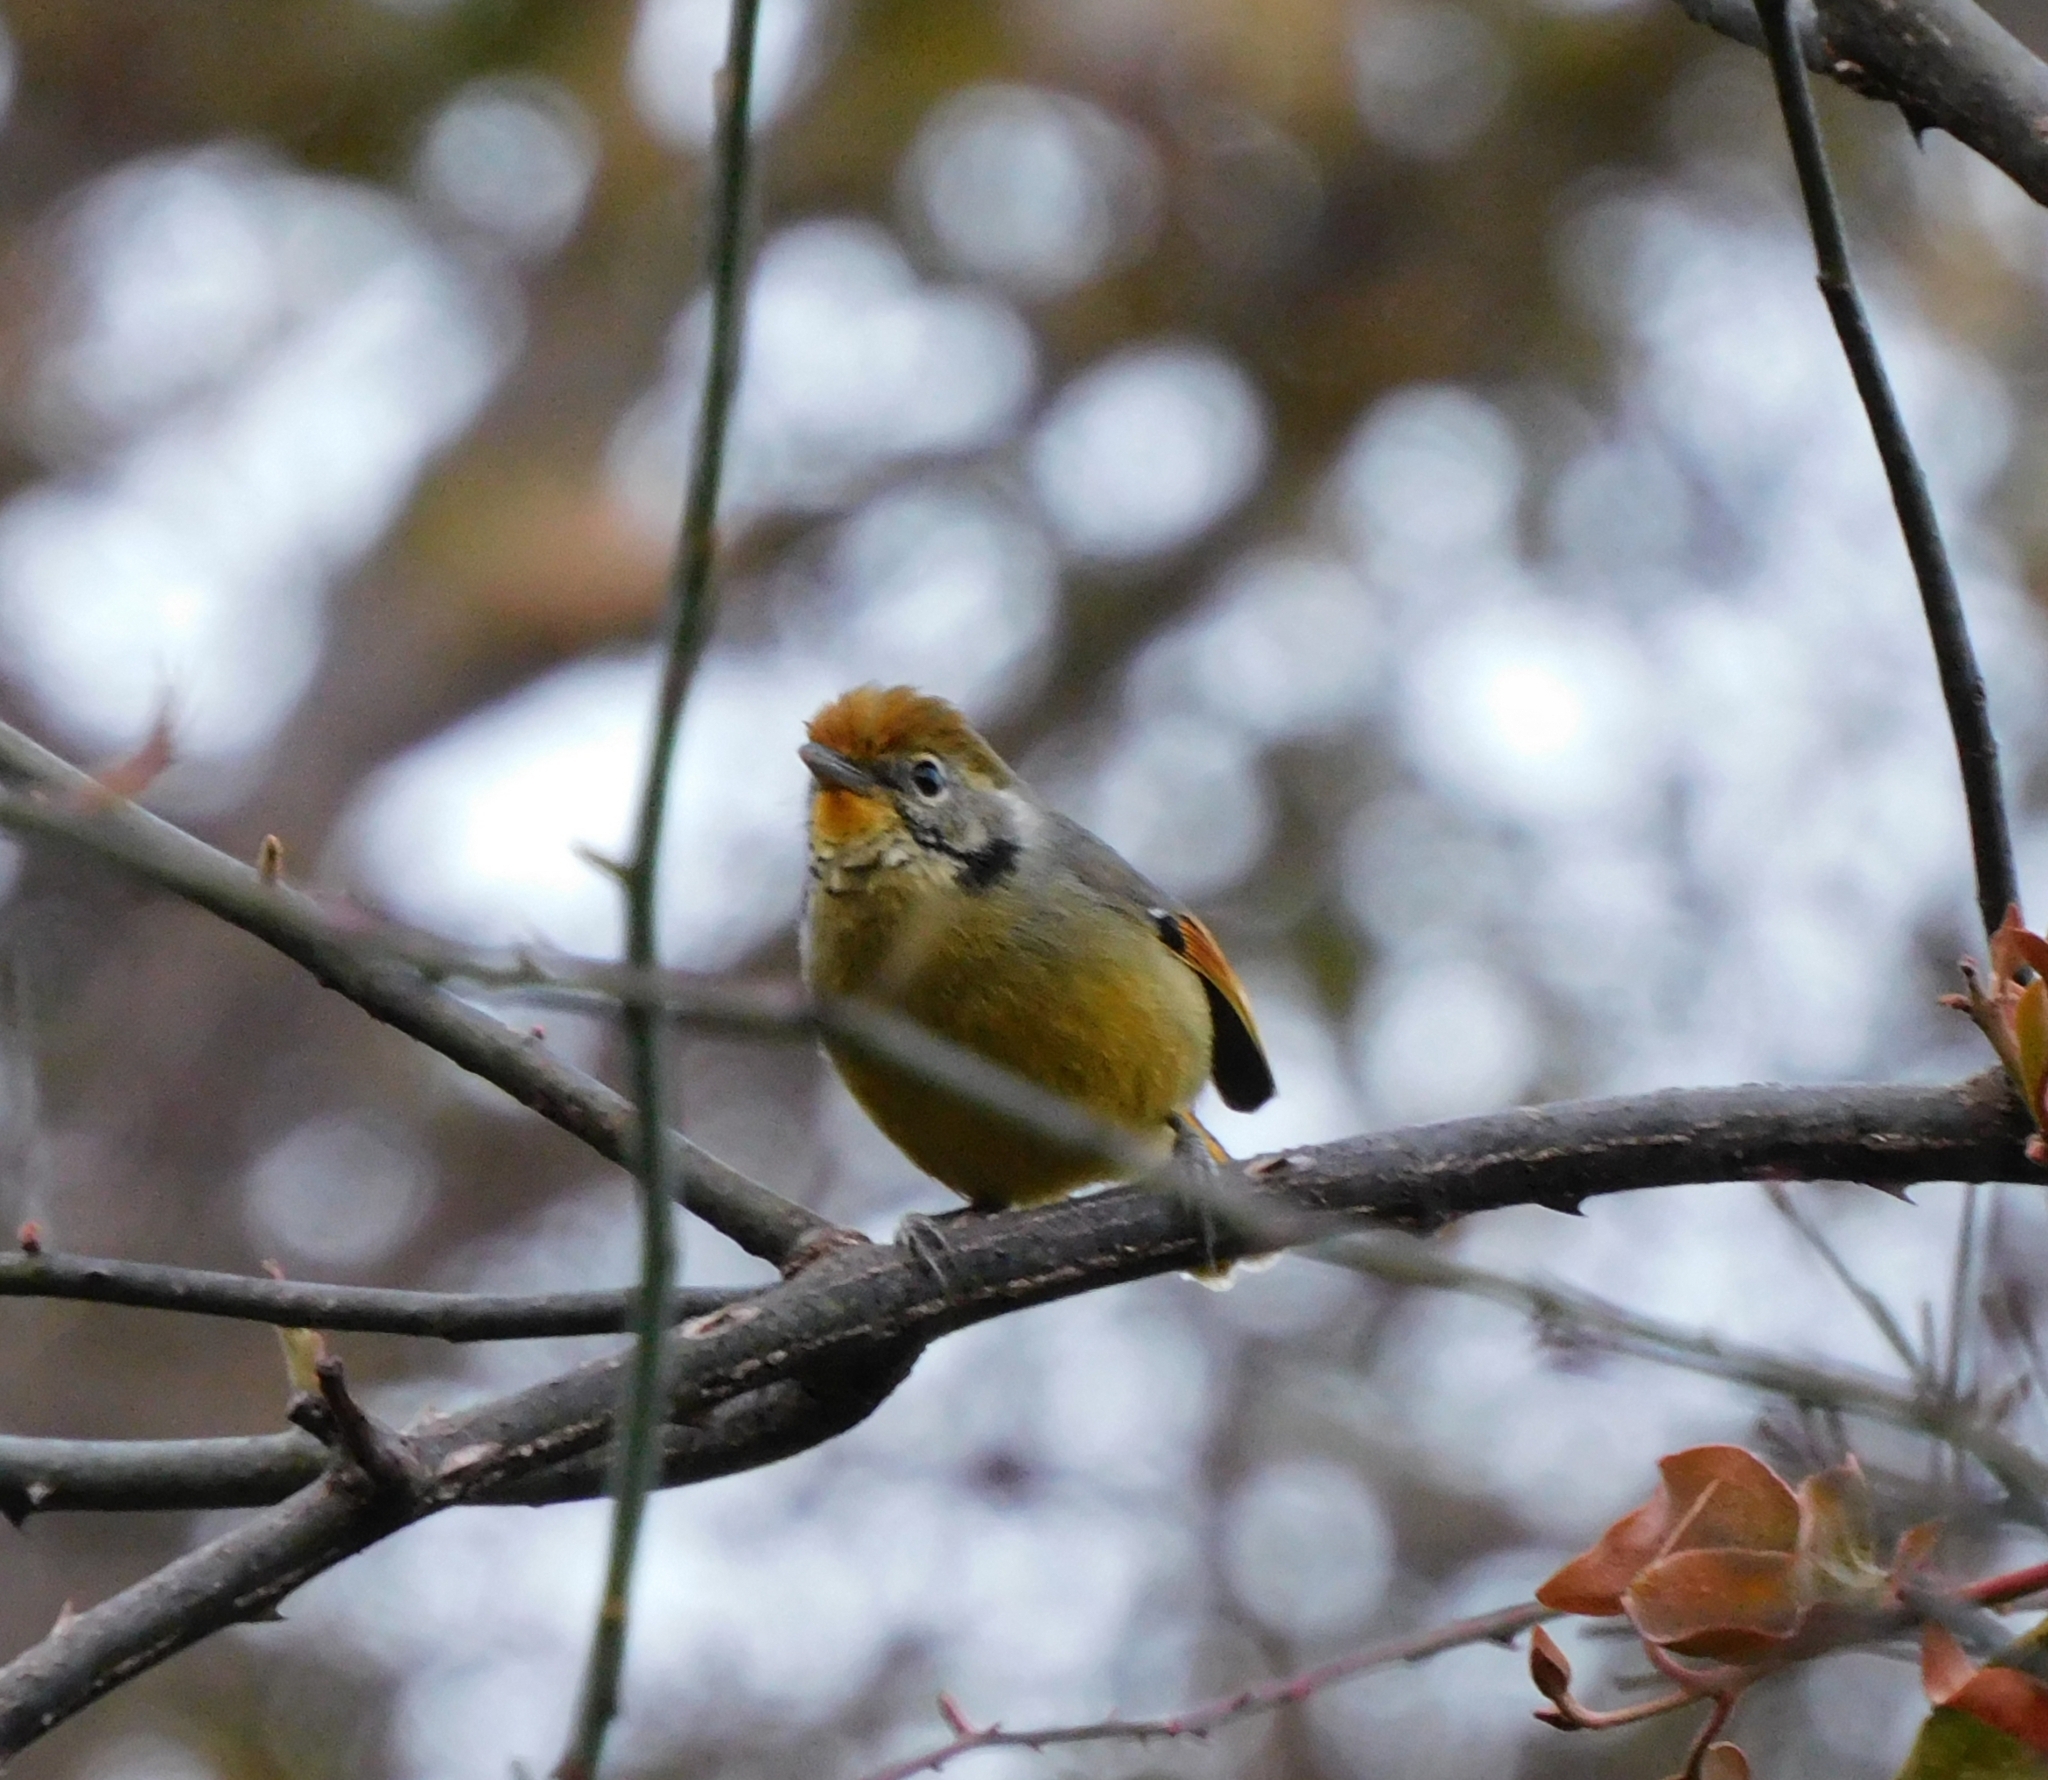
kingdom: Animalia
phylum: Chordata
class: Aves
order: Passeriformes
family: Leiothrichidae
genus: Minla
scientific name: Minla strigula
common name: Chestnut-tailed minla
